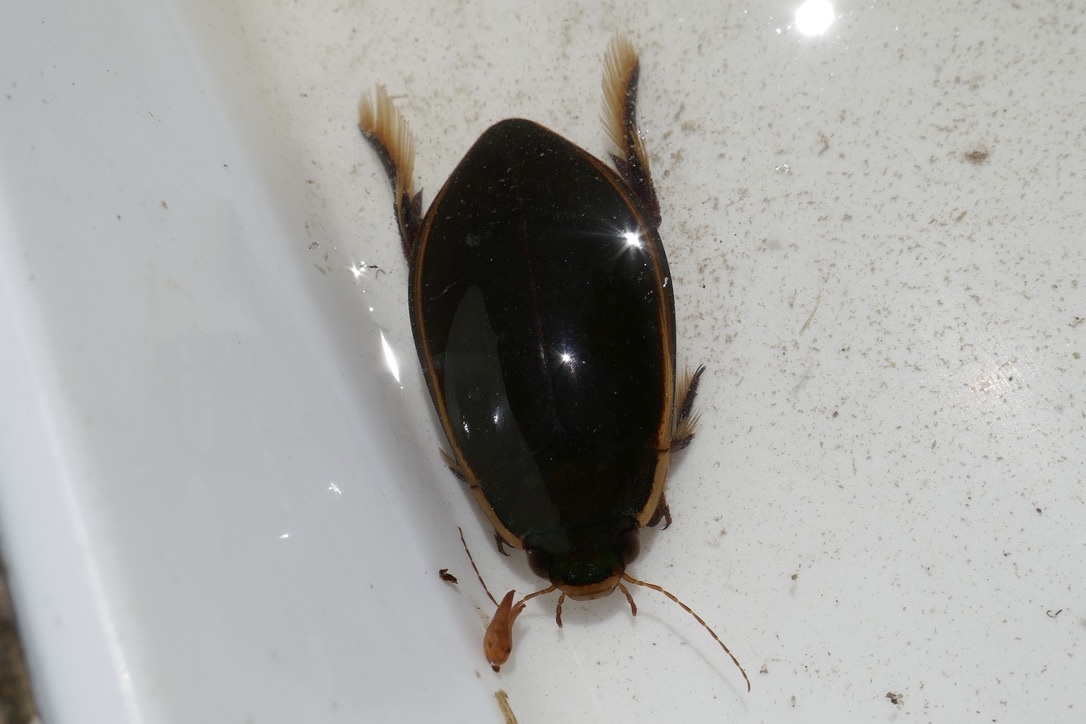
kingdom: Animalia
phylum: Arthropoda
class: Insecta
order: Coleoptera
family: Dytiscidae
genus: Cybister
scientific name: Cybister lateralimarginalis
